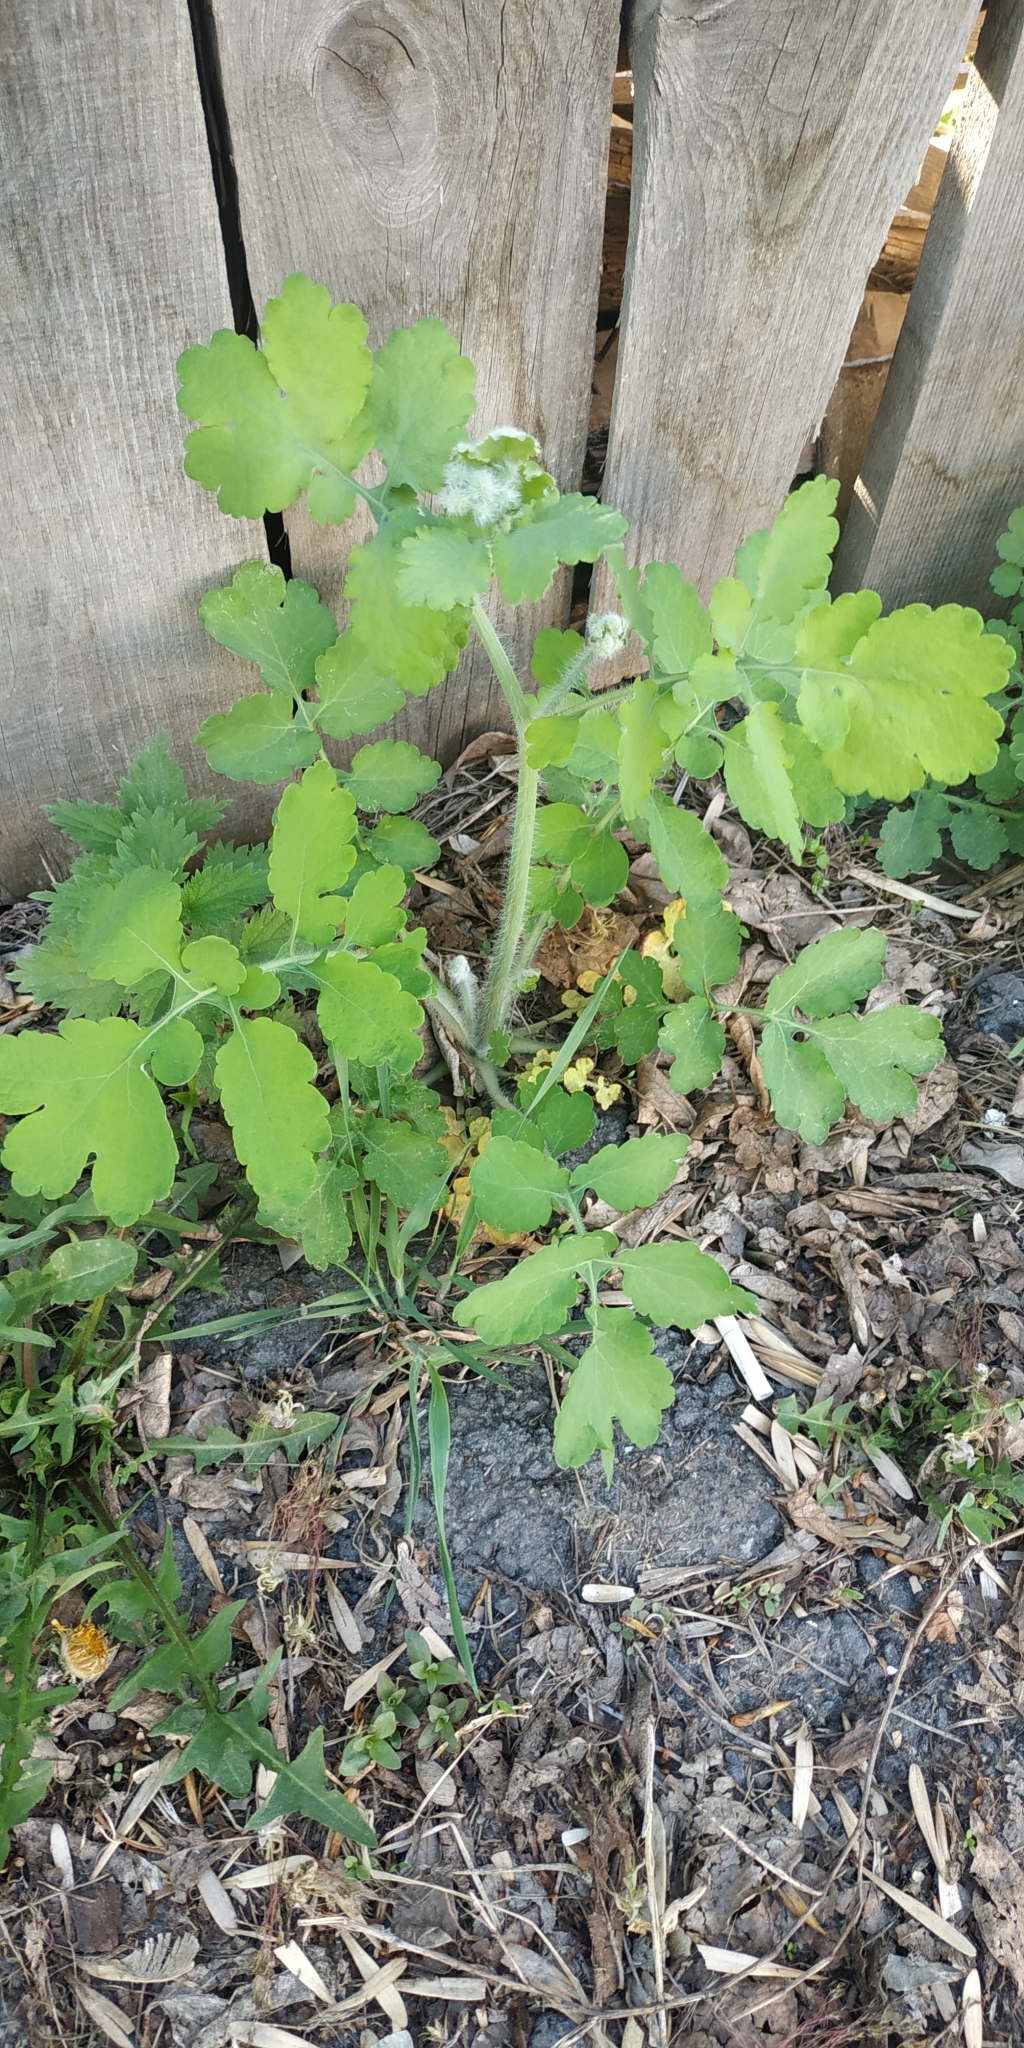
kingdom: Plantae
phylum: Tracheophyta
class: Magnoliopsida
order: Ranunculales
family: Papaveraceae
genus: Chelidonium
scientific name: Chelidonium majus
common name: Greater celandine
